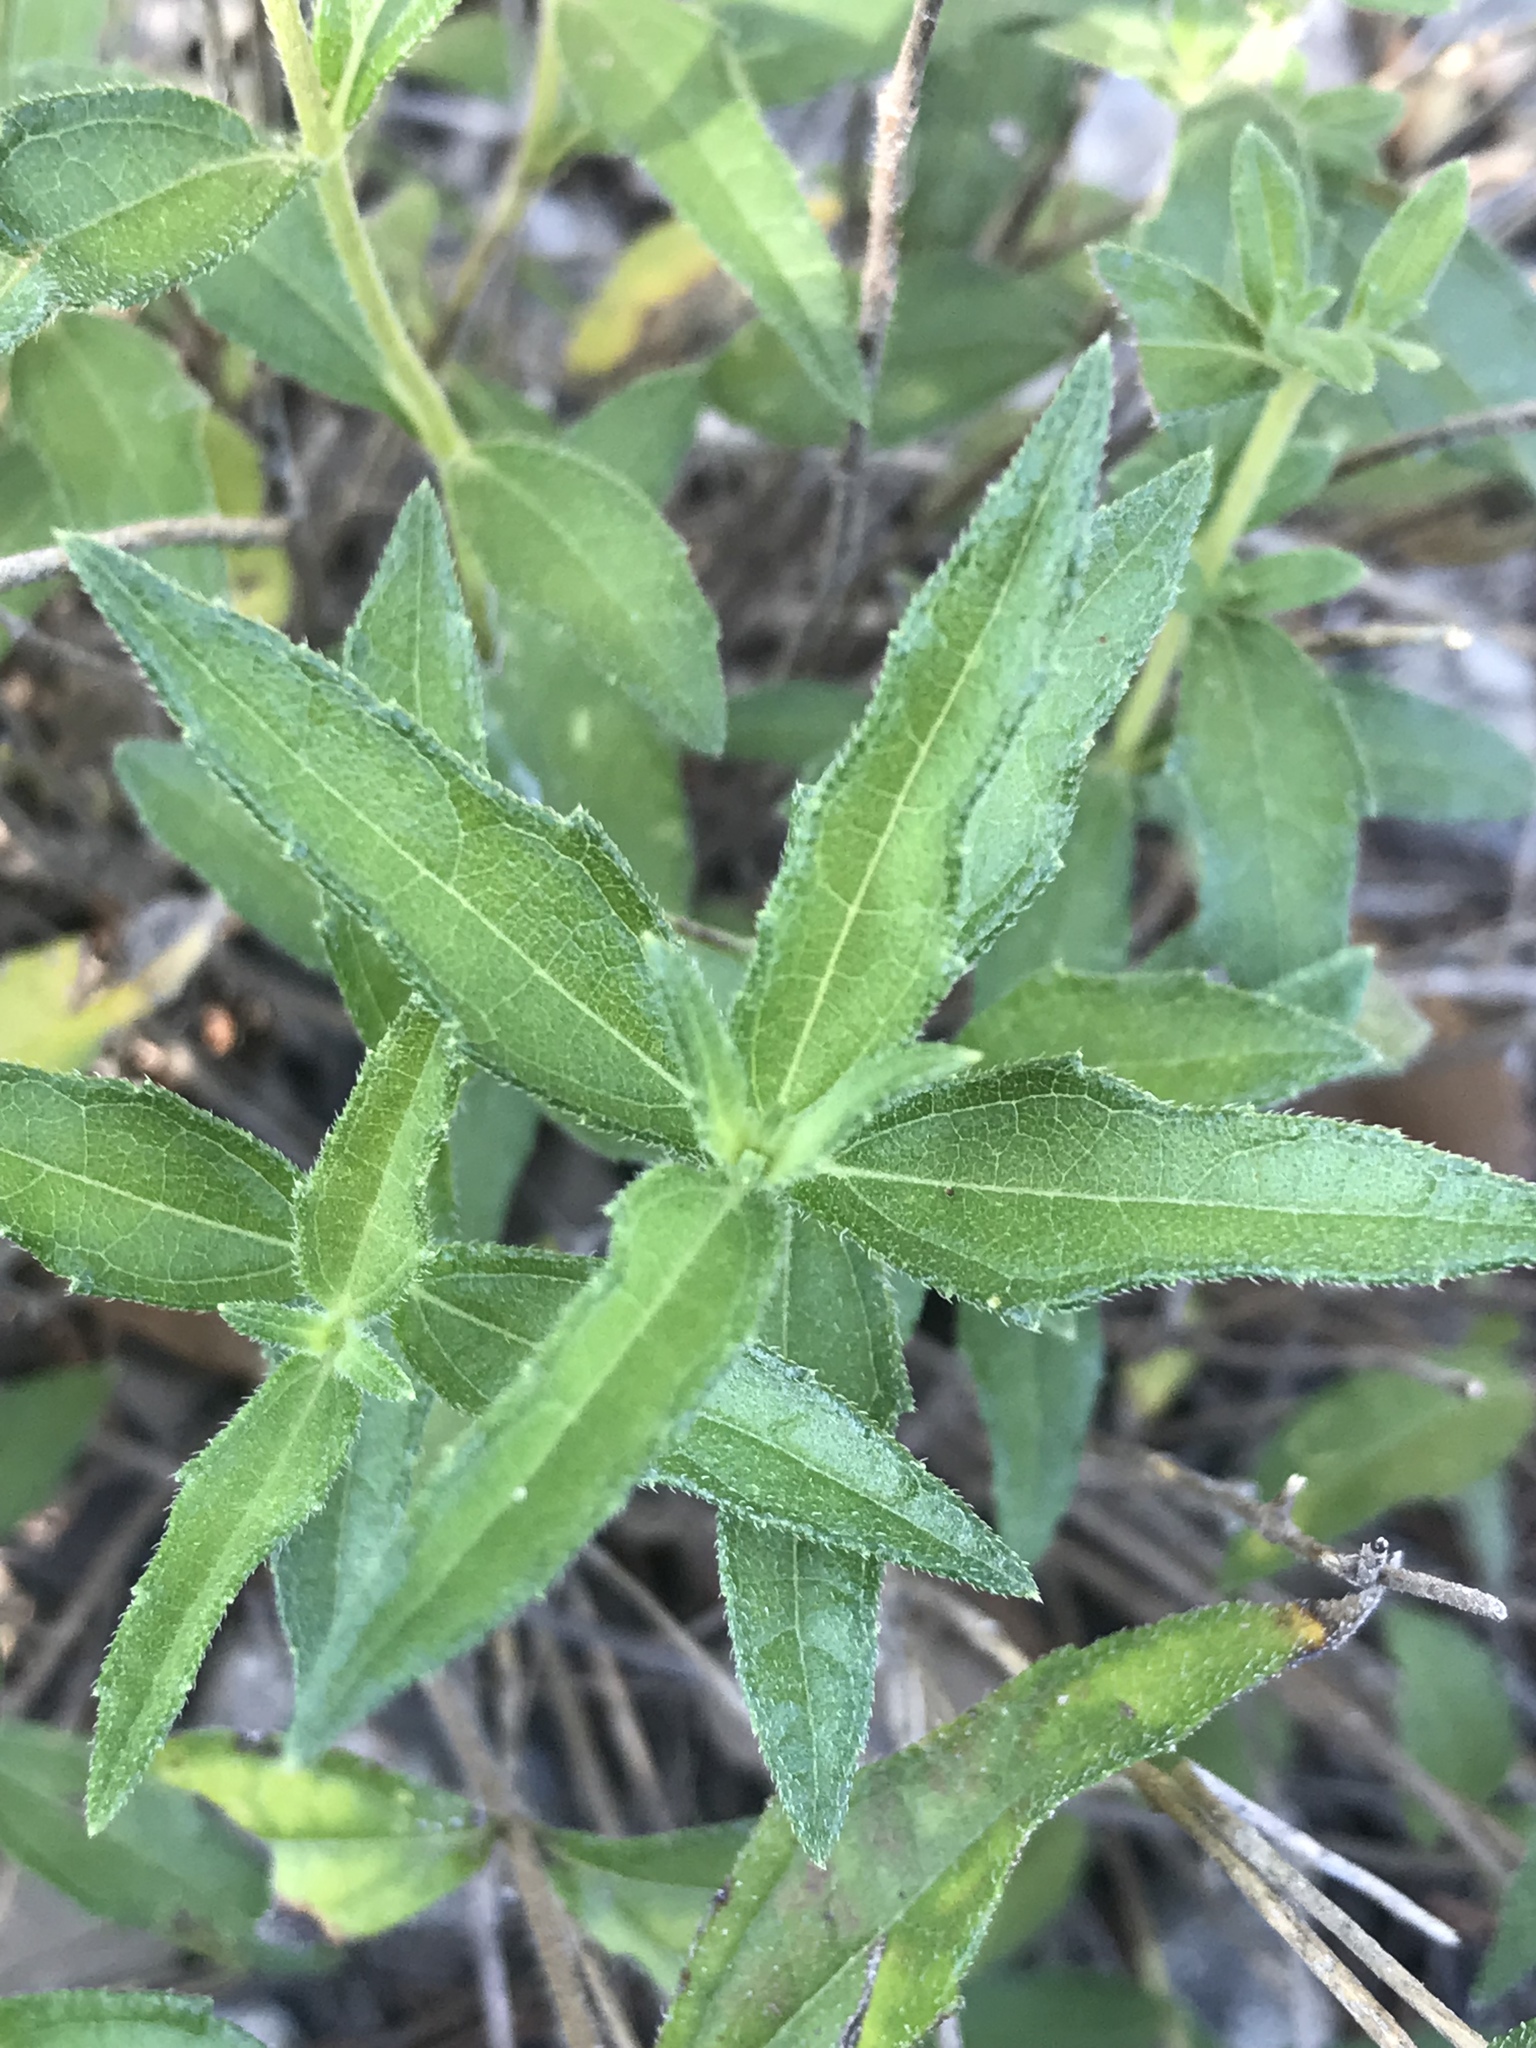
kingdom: Plantae
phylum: Tracheophyta
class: Magnoliopsida
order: Asterales
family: Asteraceae
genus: Wedelia
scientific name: Wedelia acapulcensis
